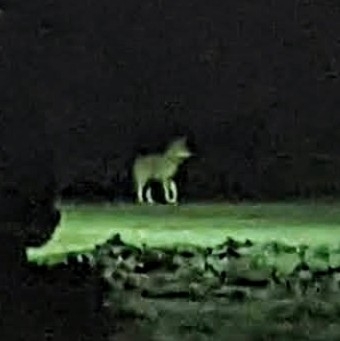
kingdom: Animalia
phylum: Chordata
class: Mammalia
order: Carnivora
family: Canidae
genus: Canis
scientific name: Canis latrans
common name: Coyote
